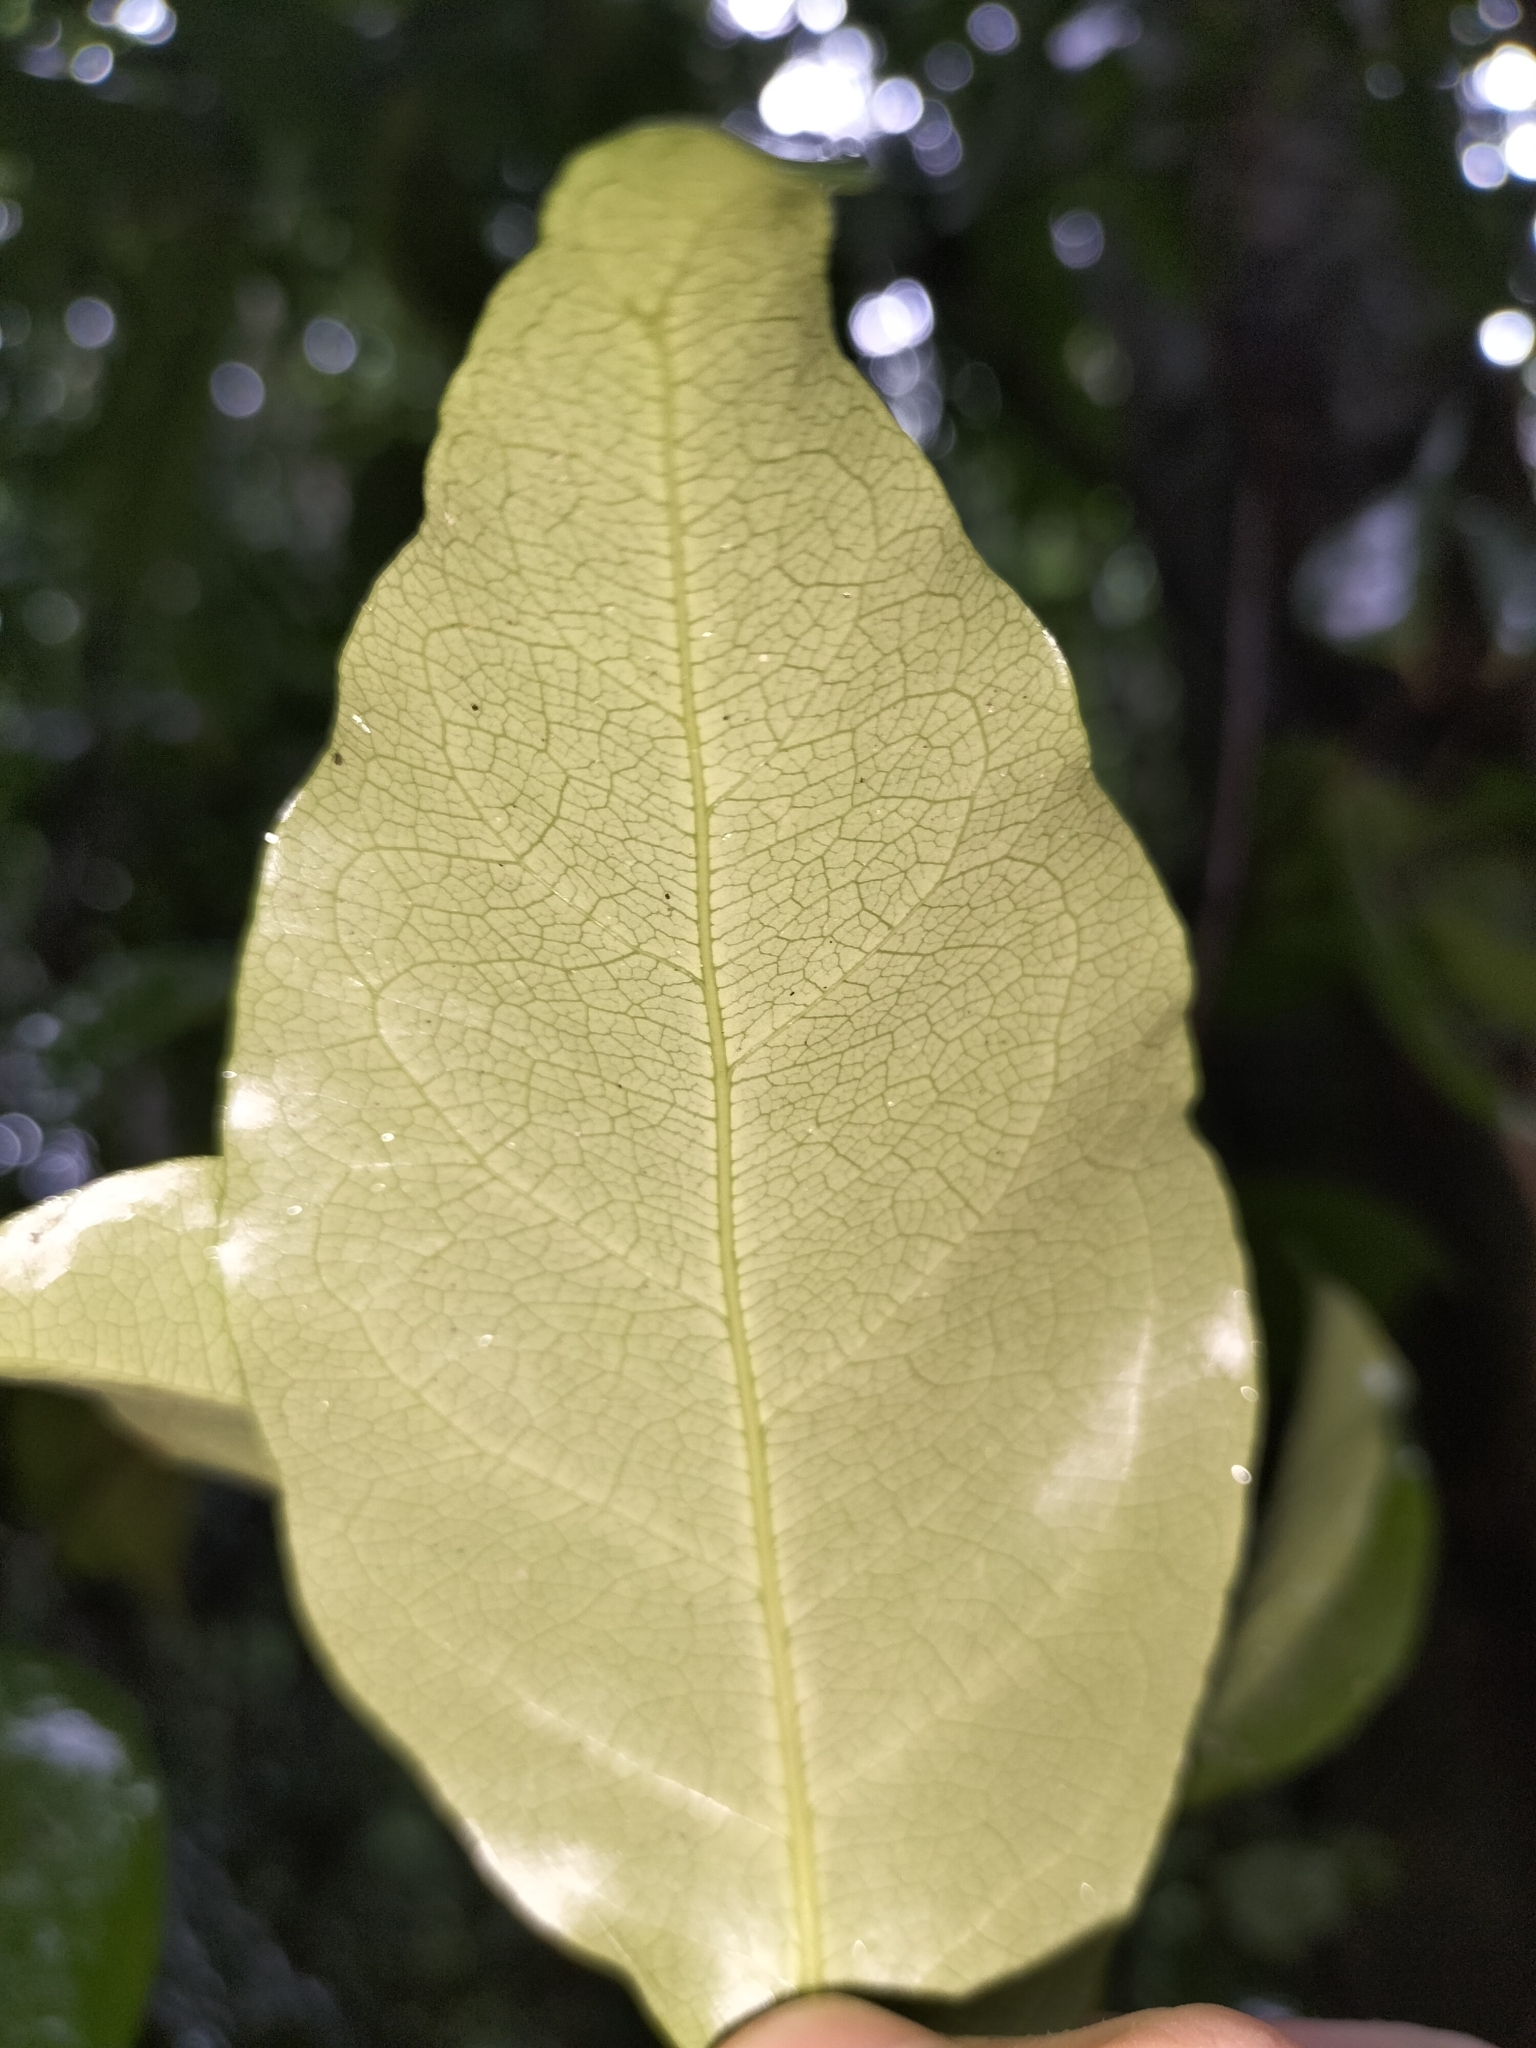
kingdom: Plantae
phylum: Tracheophyta
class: Magnoliopsida
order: Malpighiales
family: Dichapetalaceae
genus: Dichapetalum
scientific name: Dichapetalum papuanum
